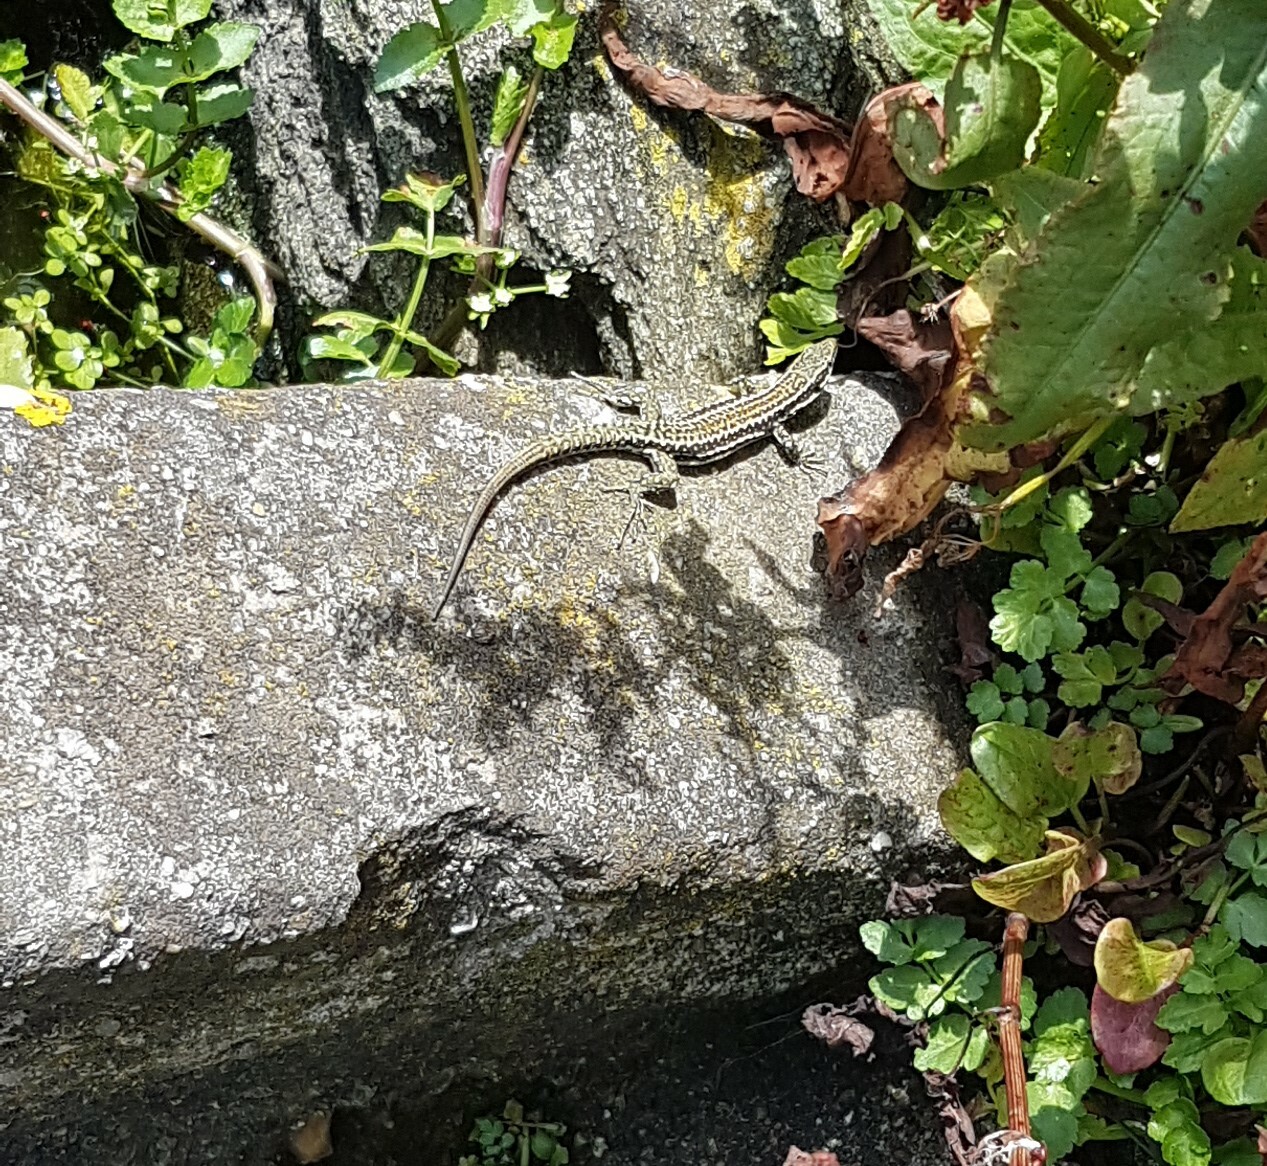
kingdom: Animalia
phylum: Chordata
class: Squamata
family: Lacertidae
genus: Podarcis
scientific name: Podarcis muralis
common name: Common wall lizard
